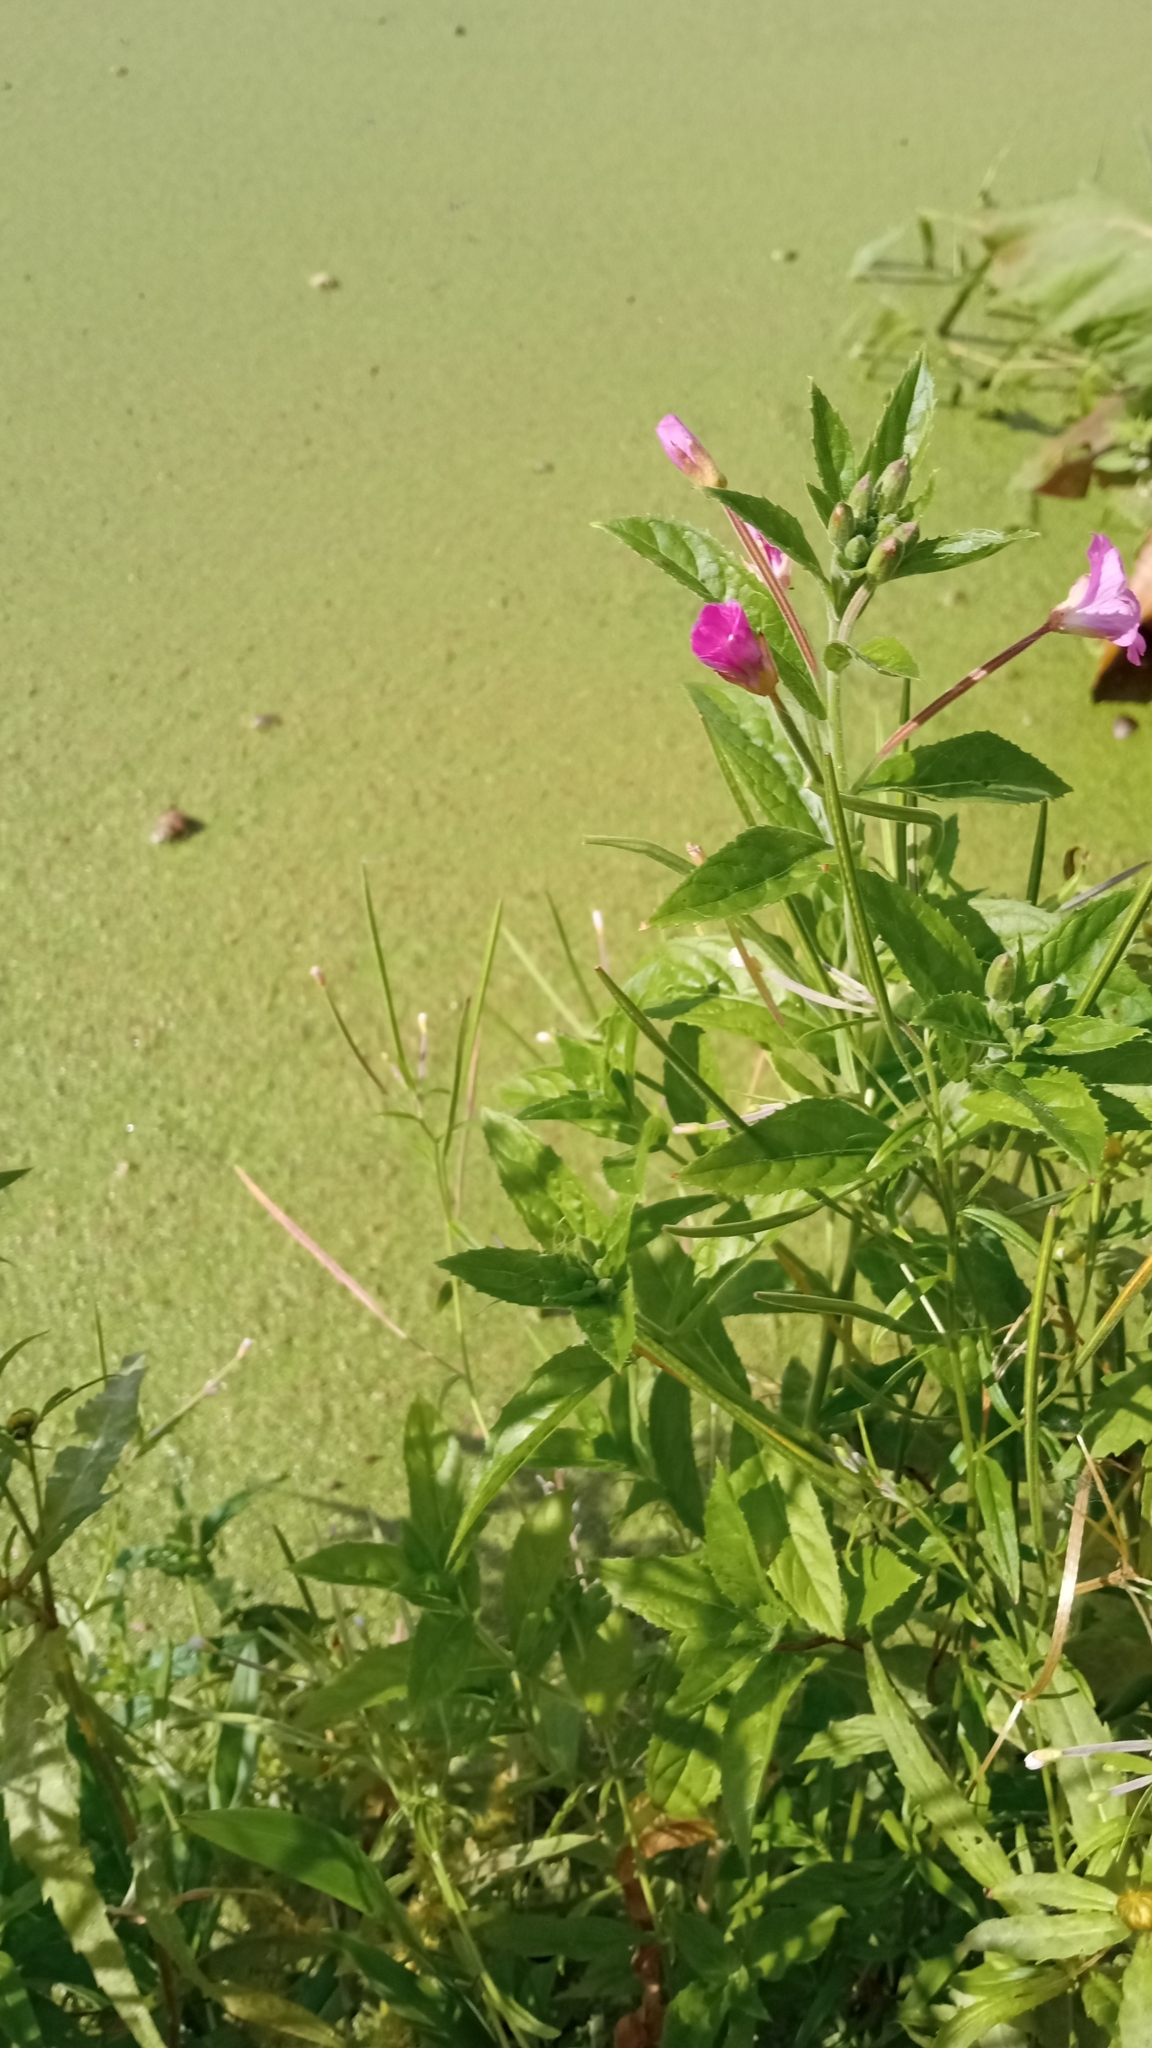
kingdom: Plantae
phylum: Tracheophyta
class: Magnoliopsida
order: Myrtales
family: Onagraceae
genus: Epilobium
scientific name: Epilobium hirsutum
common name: Great willowherb
